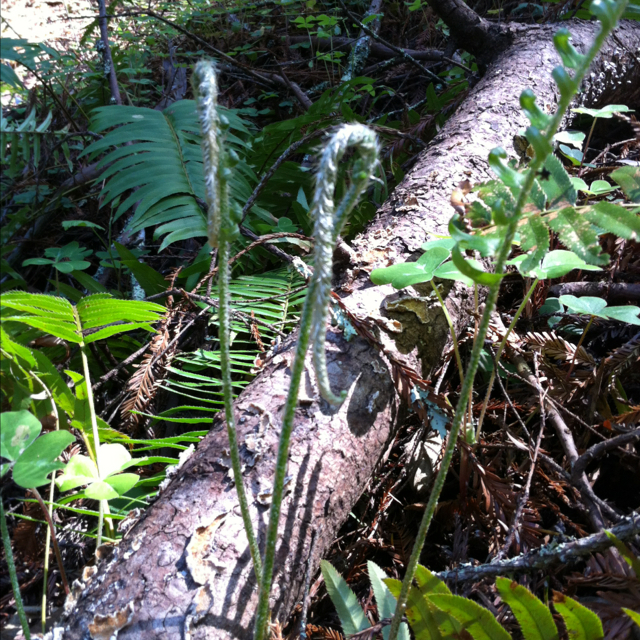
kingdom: Plantae
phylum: Tracheophyta
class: Polypodiopsida
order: Polypodiales
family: Dryopteridaceae
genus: Polystichum
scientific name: Polystichum munitum
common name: Western sword-fern
